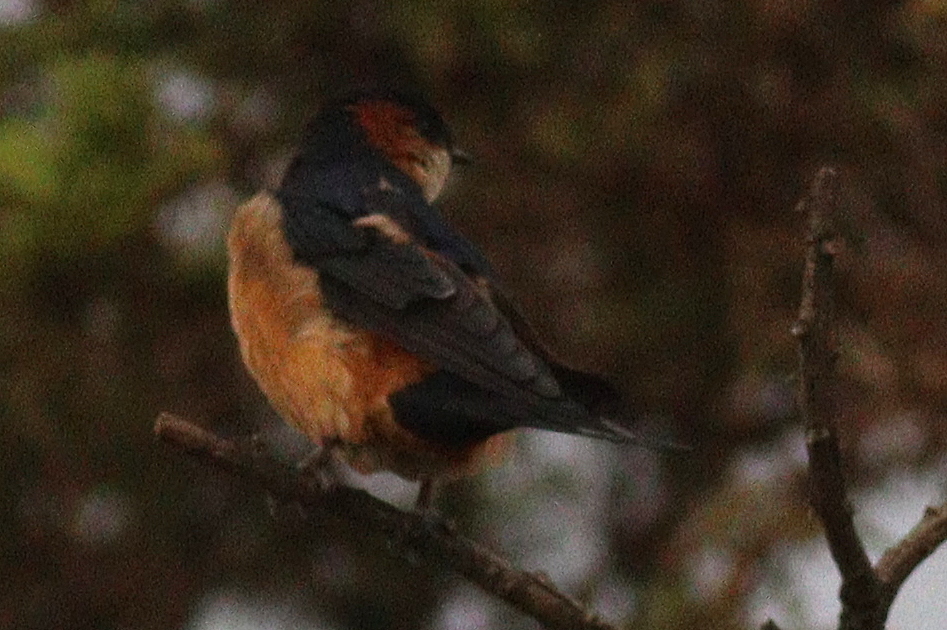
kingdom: Animalia
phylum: Chordata
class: Aves
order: Passeriformes
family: Hirundinidae
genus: Cecropis
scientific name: Cecropis daurica
